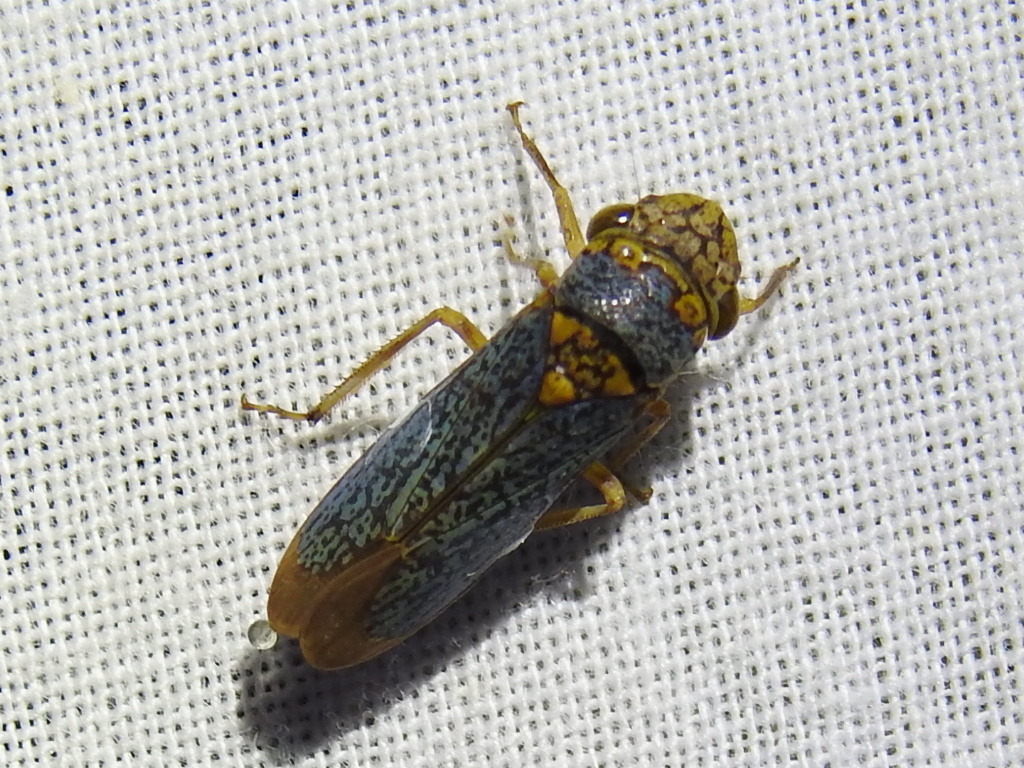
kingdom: Animalia
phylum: Arthropoda
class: Insecta
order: Hemiptera
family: Cicadellidae
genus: Oncometopia
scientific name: Oncometopia orbona
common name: Broad-headed sharpshooter
